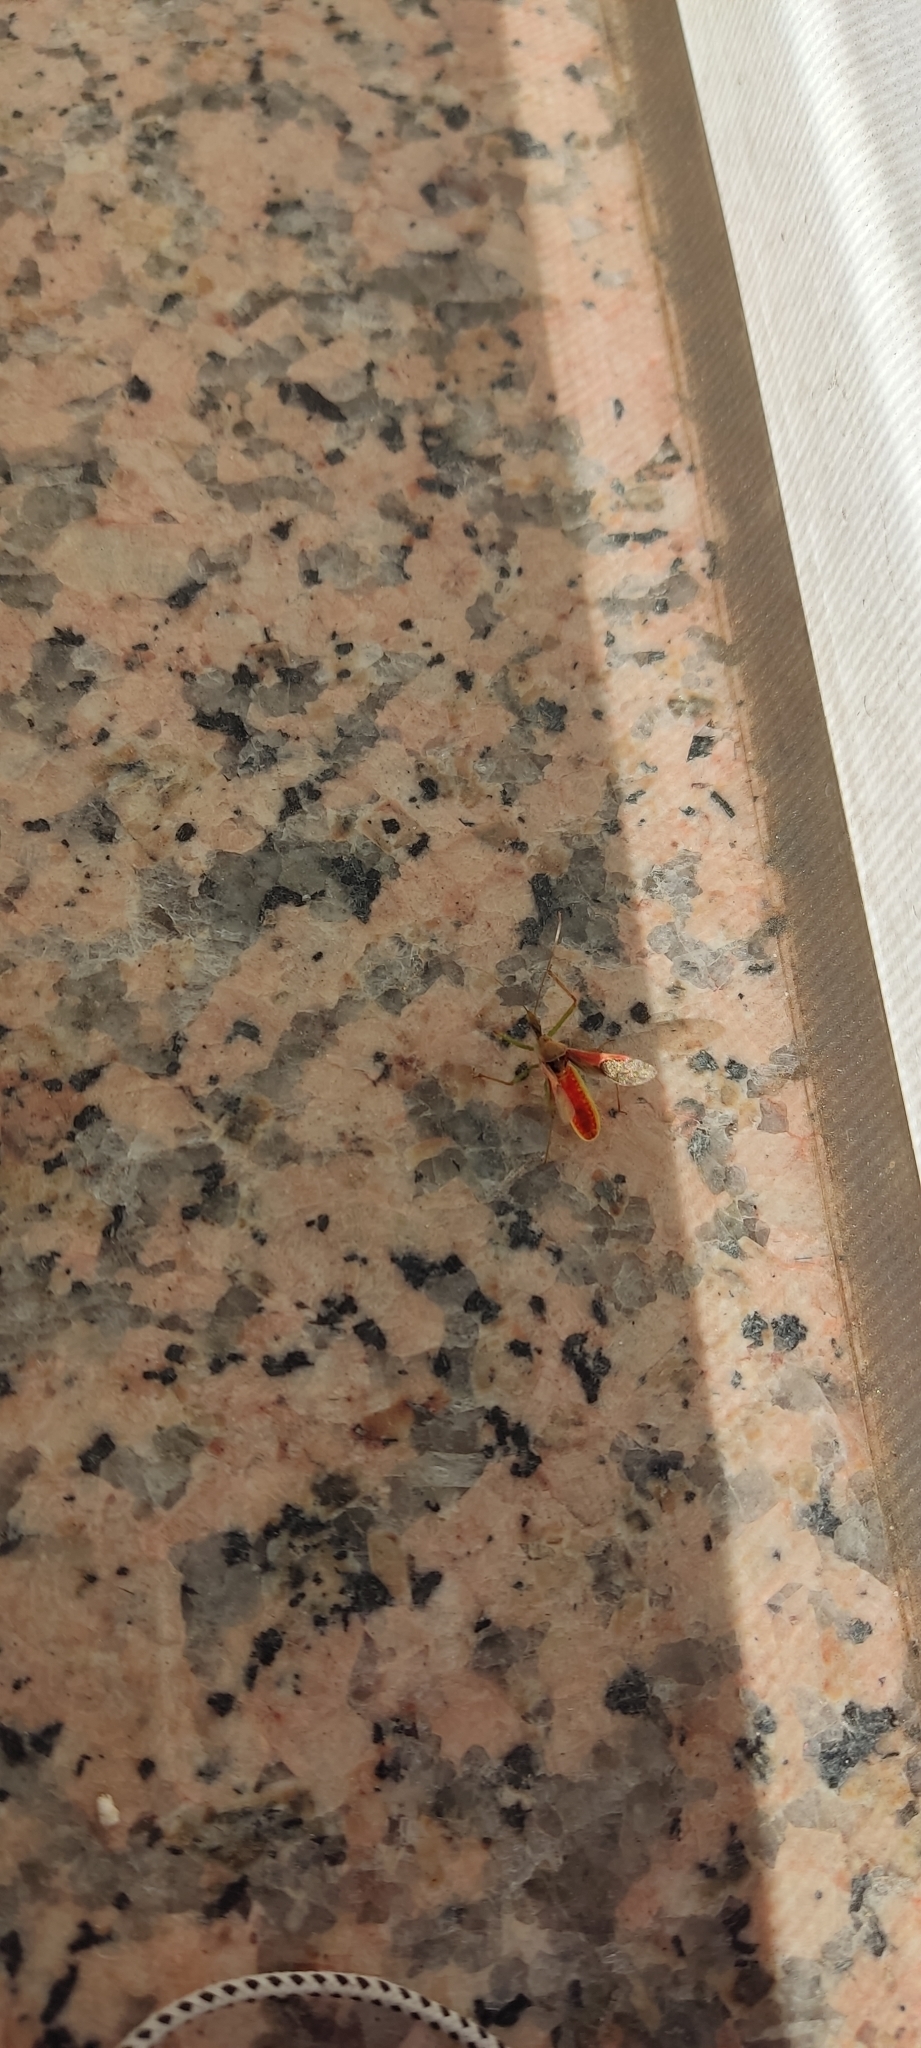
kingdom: Animalia
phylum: Arthropoda
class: Insecta
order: Hemiptera
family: Reduviidae
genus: Zelus
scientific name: Zelus renardii
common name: Assassin bug
